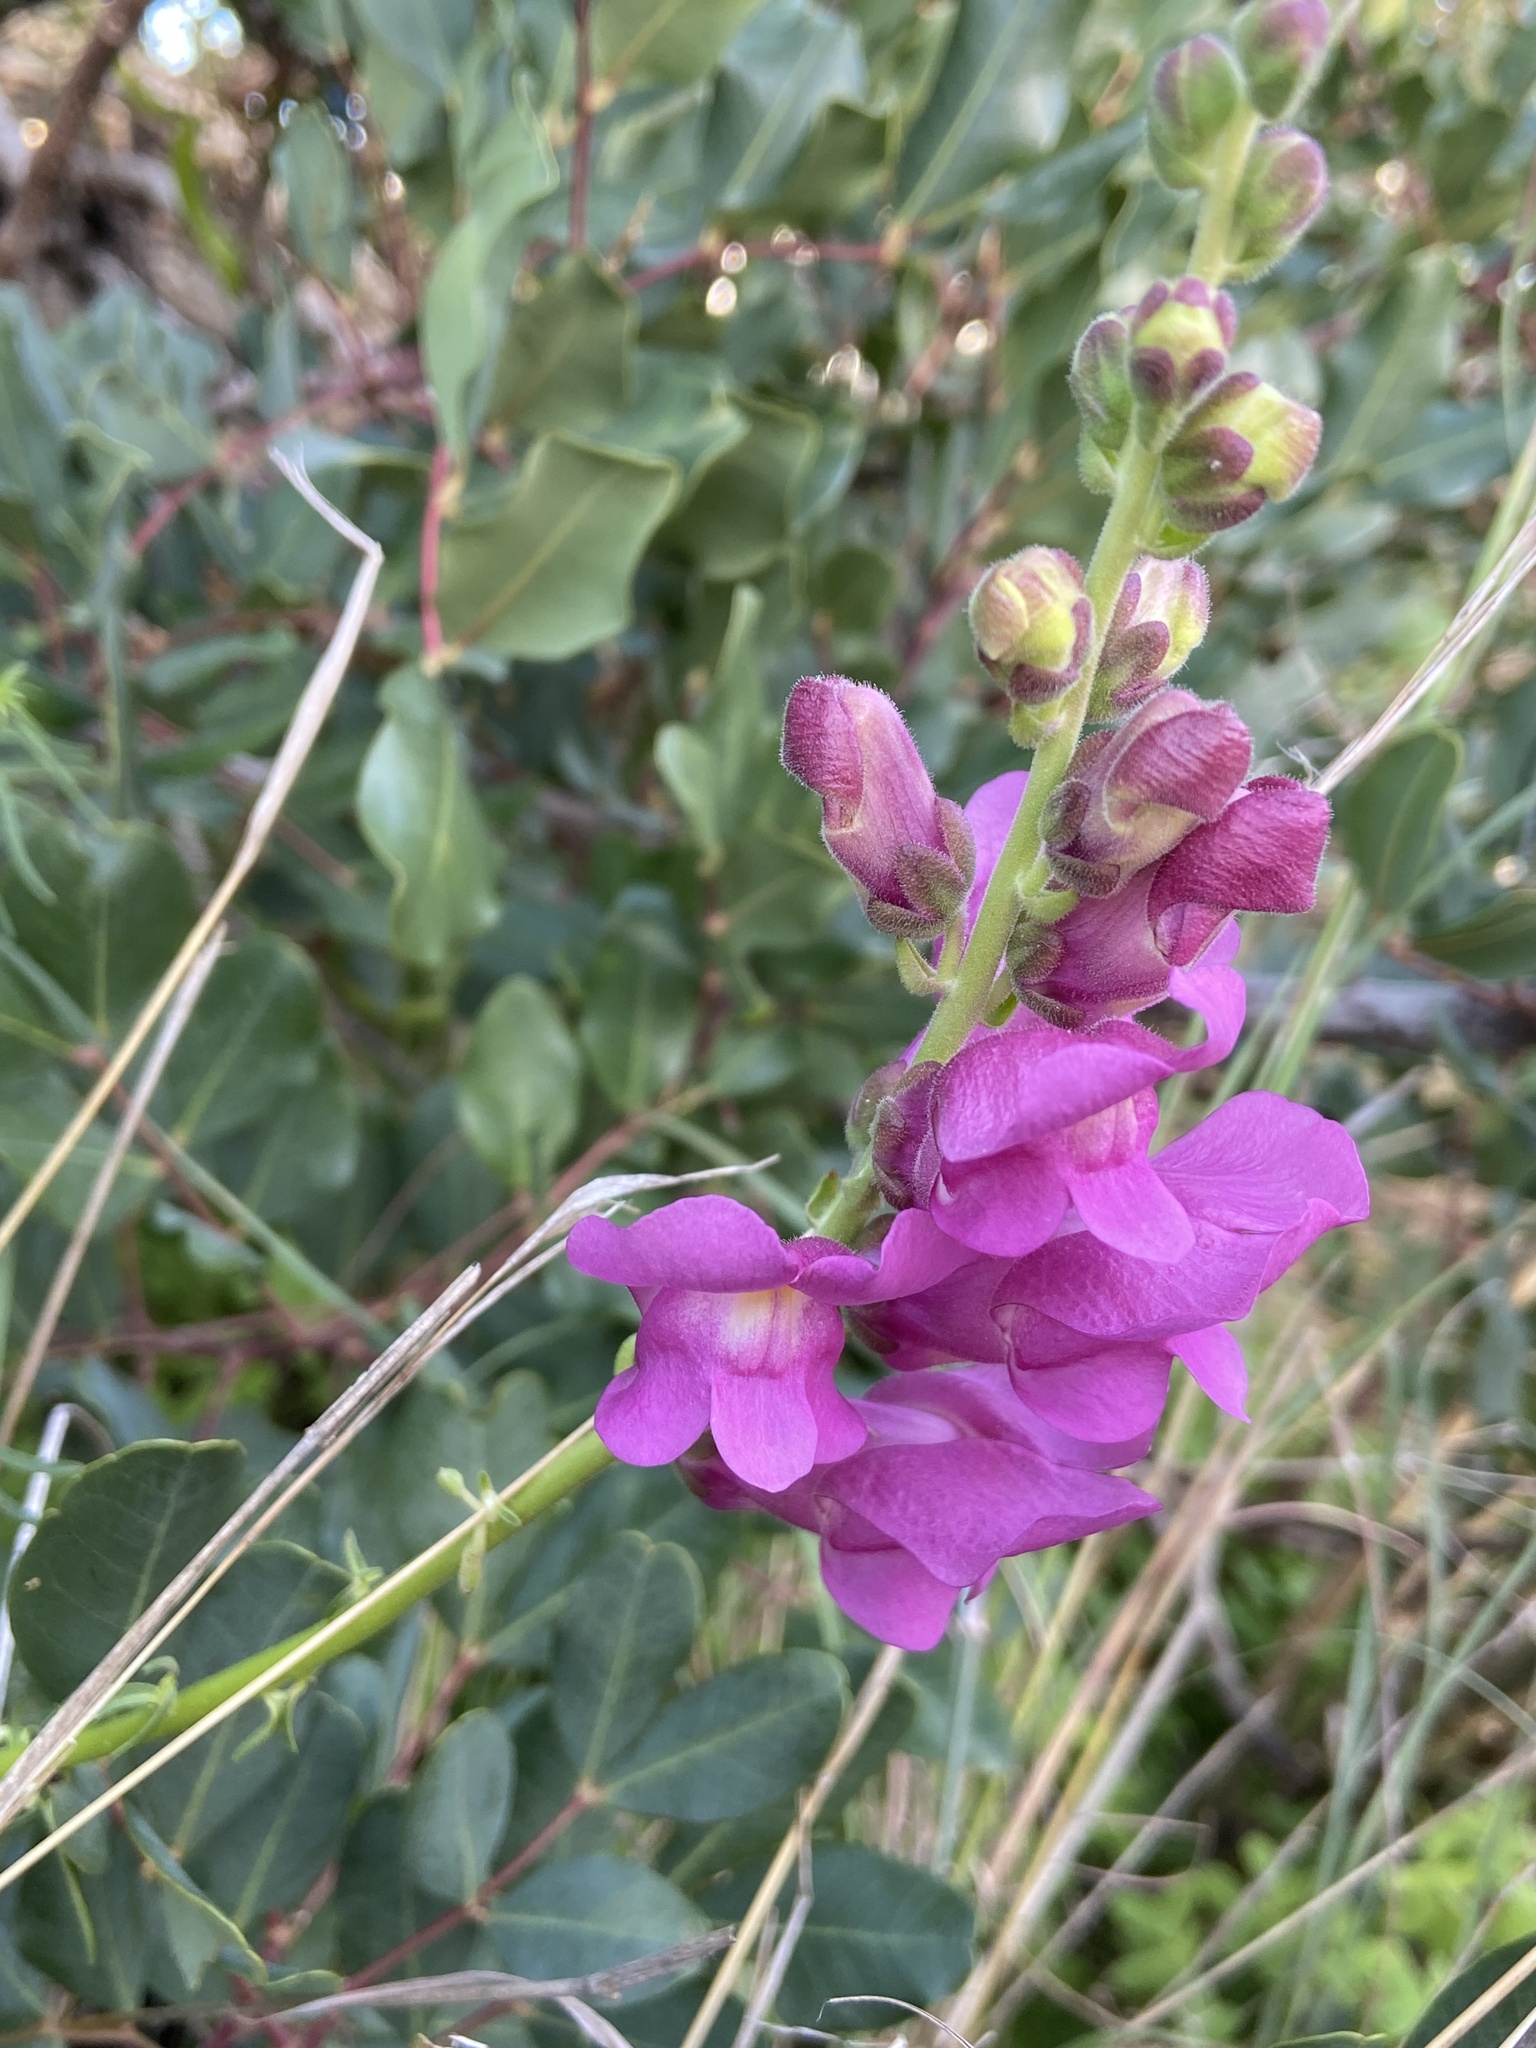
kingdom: Plantae
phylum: Tracheophyta
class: Magnoliopsida
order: Lamiales
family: Plantaginaceae
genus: Antirrhinum
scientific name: Antirrhinum tortuosum
